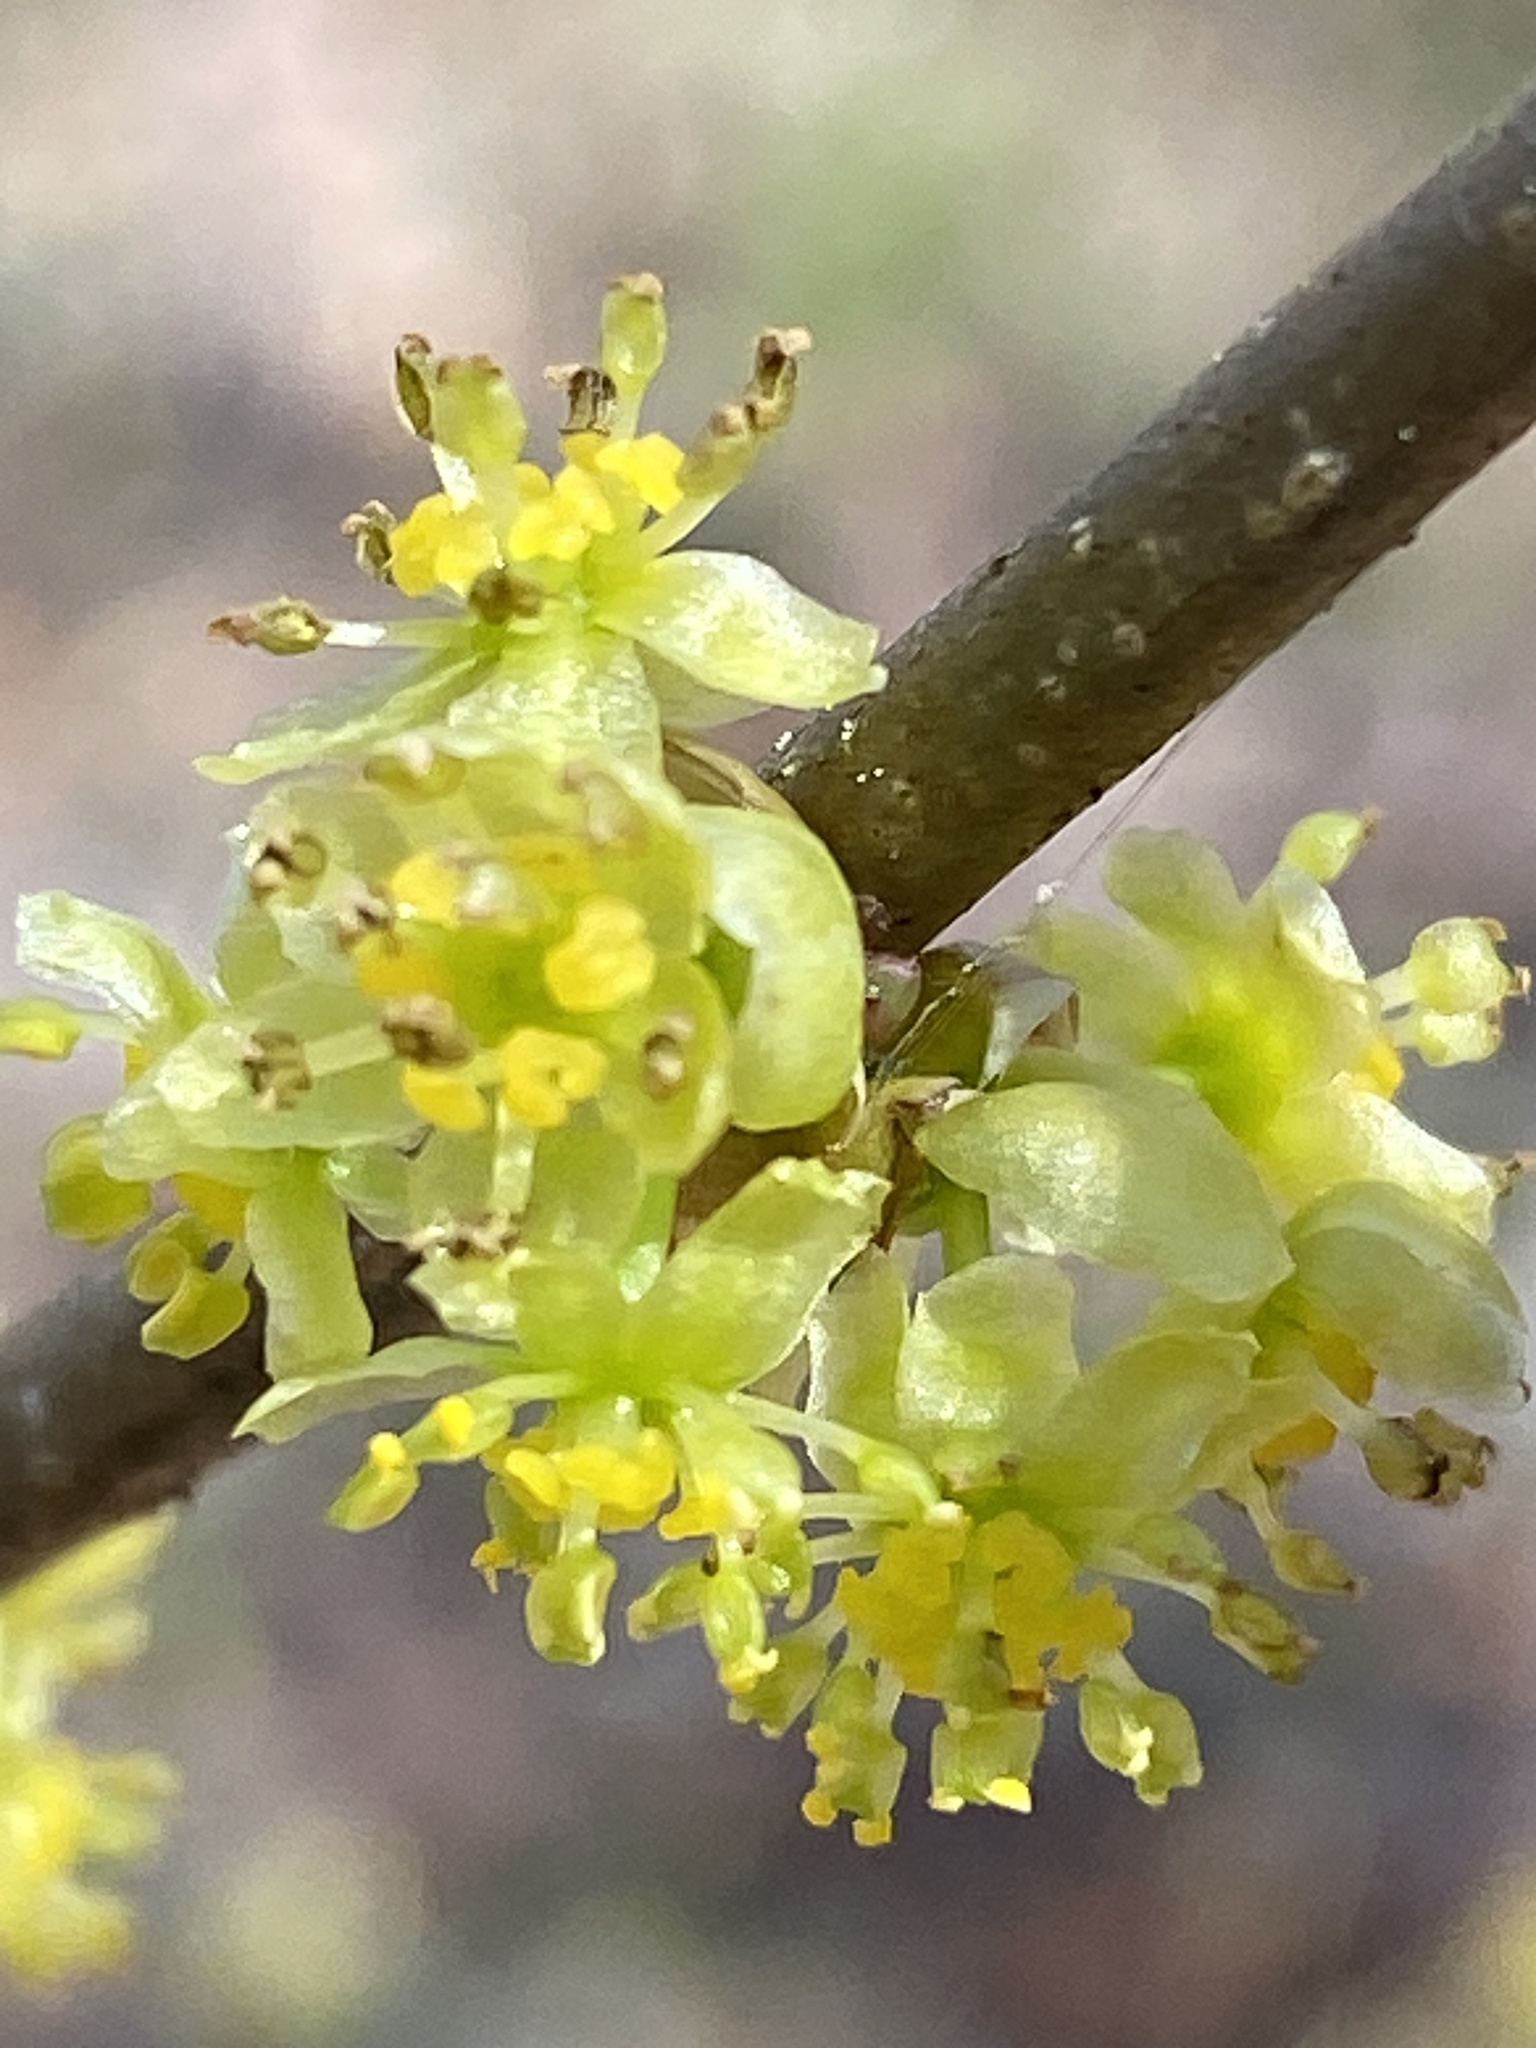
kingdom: Plantae
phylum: Tracheophyta
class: Magnoliopsida
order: Laurales
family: Lauraceae
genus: Lindera
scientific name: Lindera benzoin
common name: Spicebush
